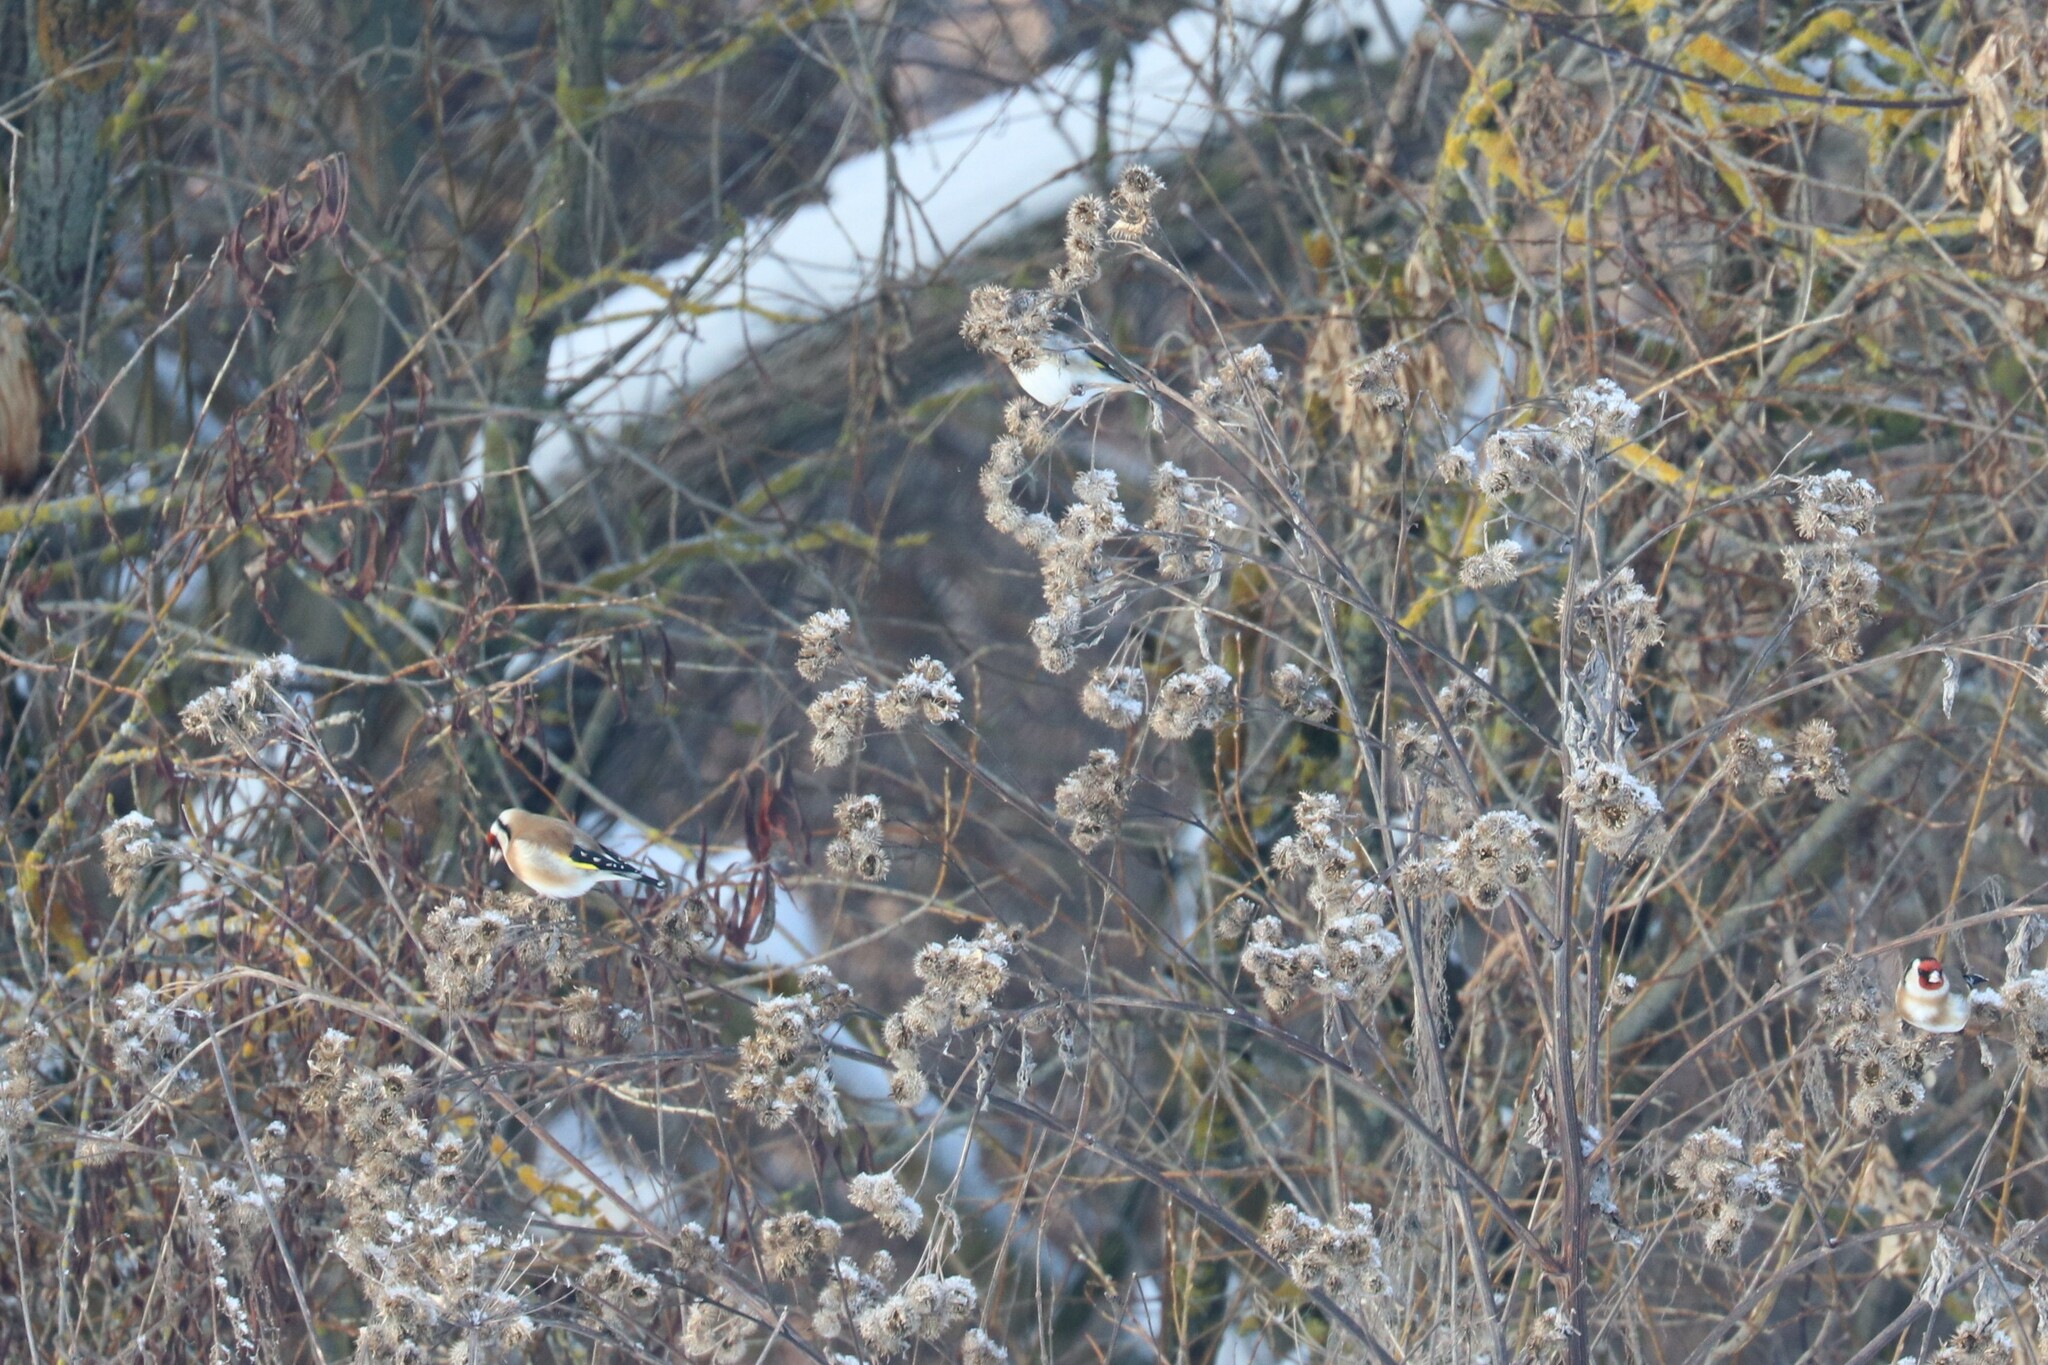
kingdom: Animalia
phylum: Chordata
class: Aves
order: Passeriformes
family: Fringillidae
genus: Carduelis
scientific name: Carduelis carduelis
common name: European goldfinch
